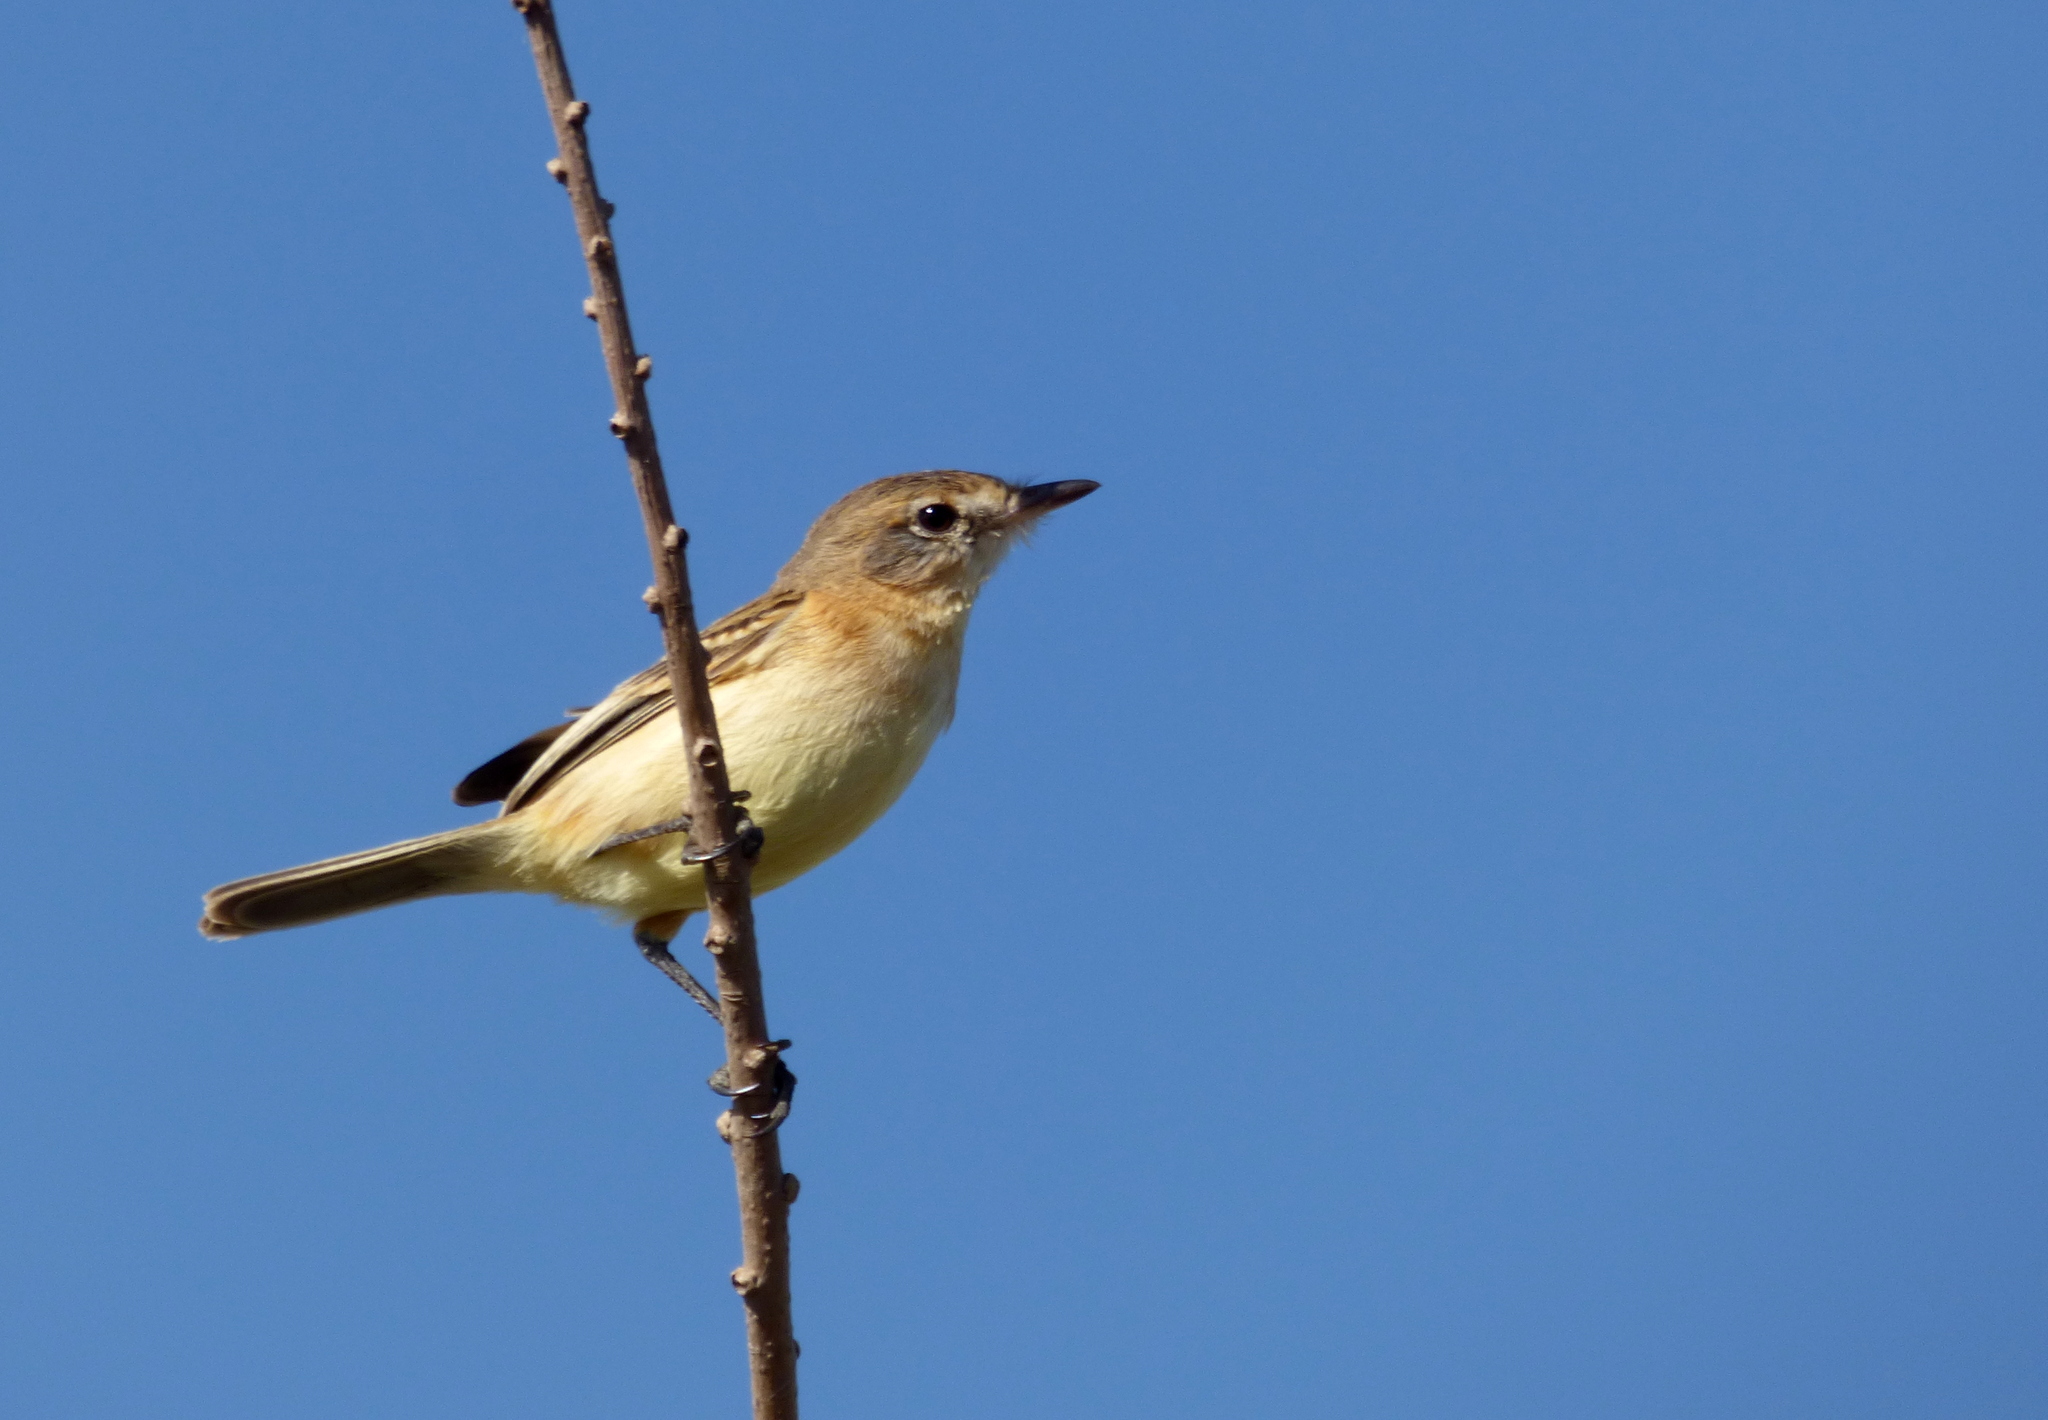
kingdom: Animalia
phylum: Chordata
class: Aves
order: Passeriformes
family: Tyrannidae
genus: Polystictus
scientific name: Polystictus pectoralis
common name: Bearded tachuri
